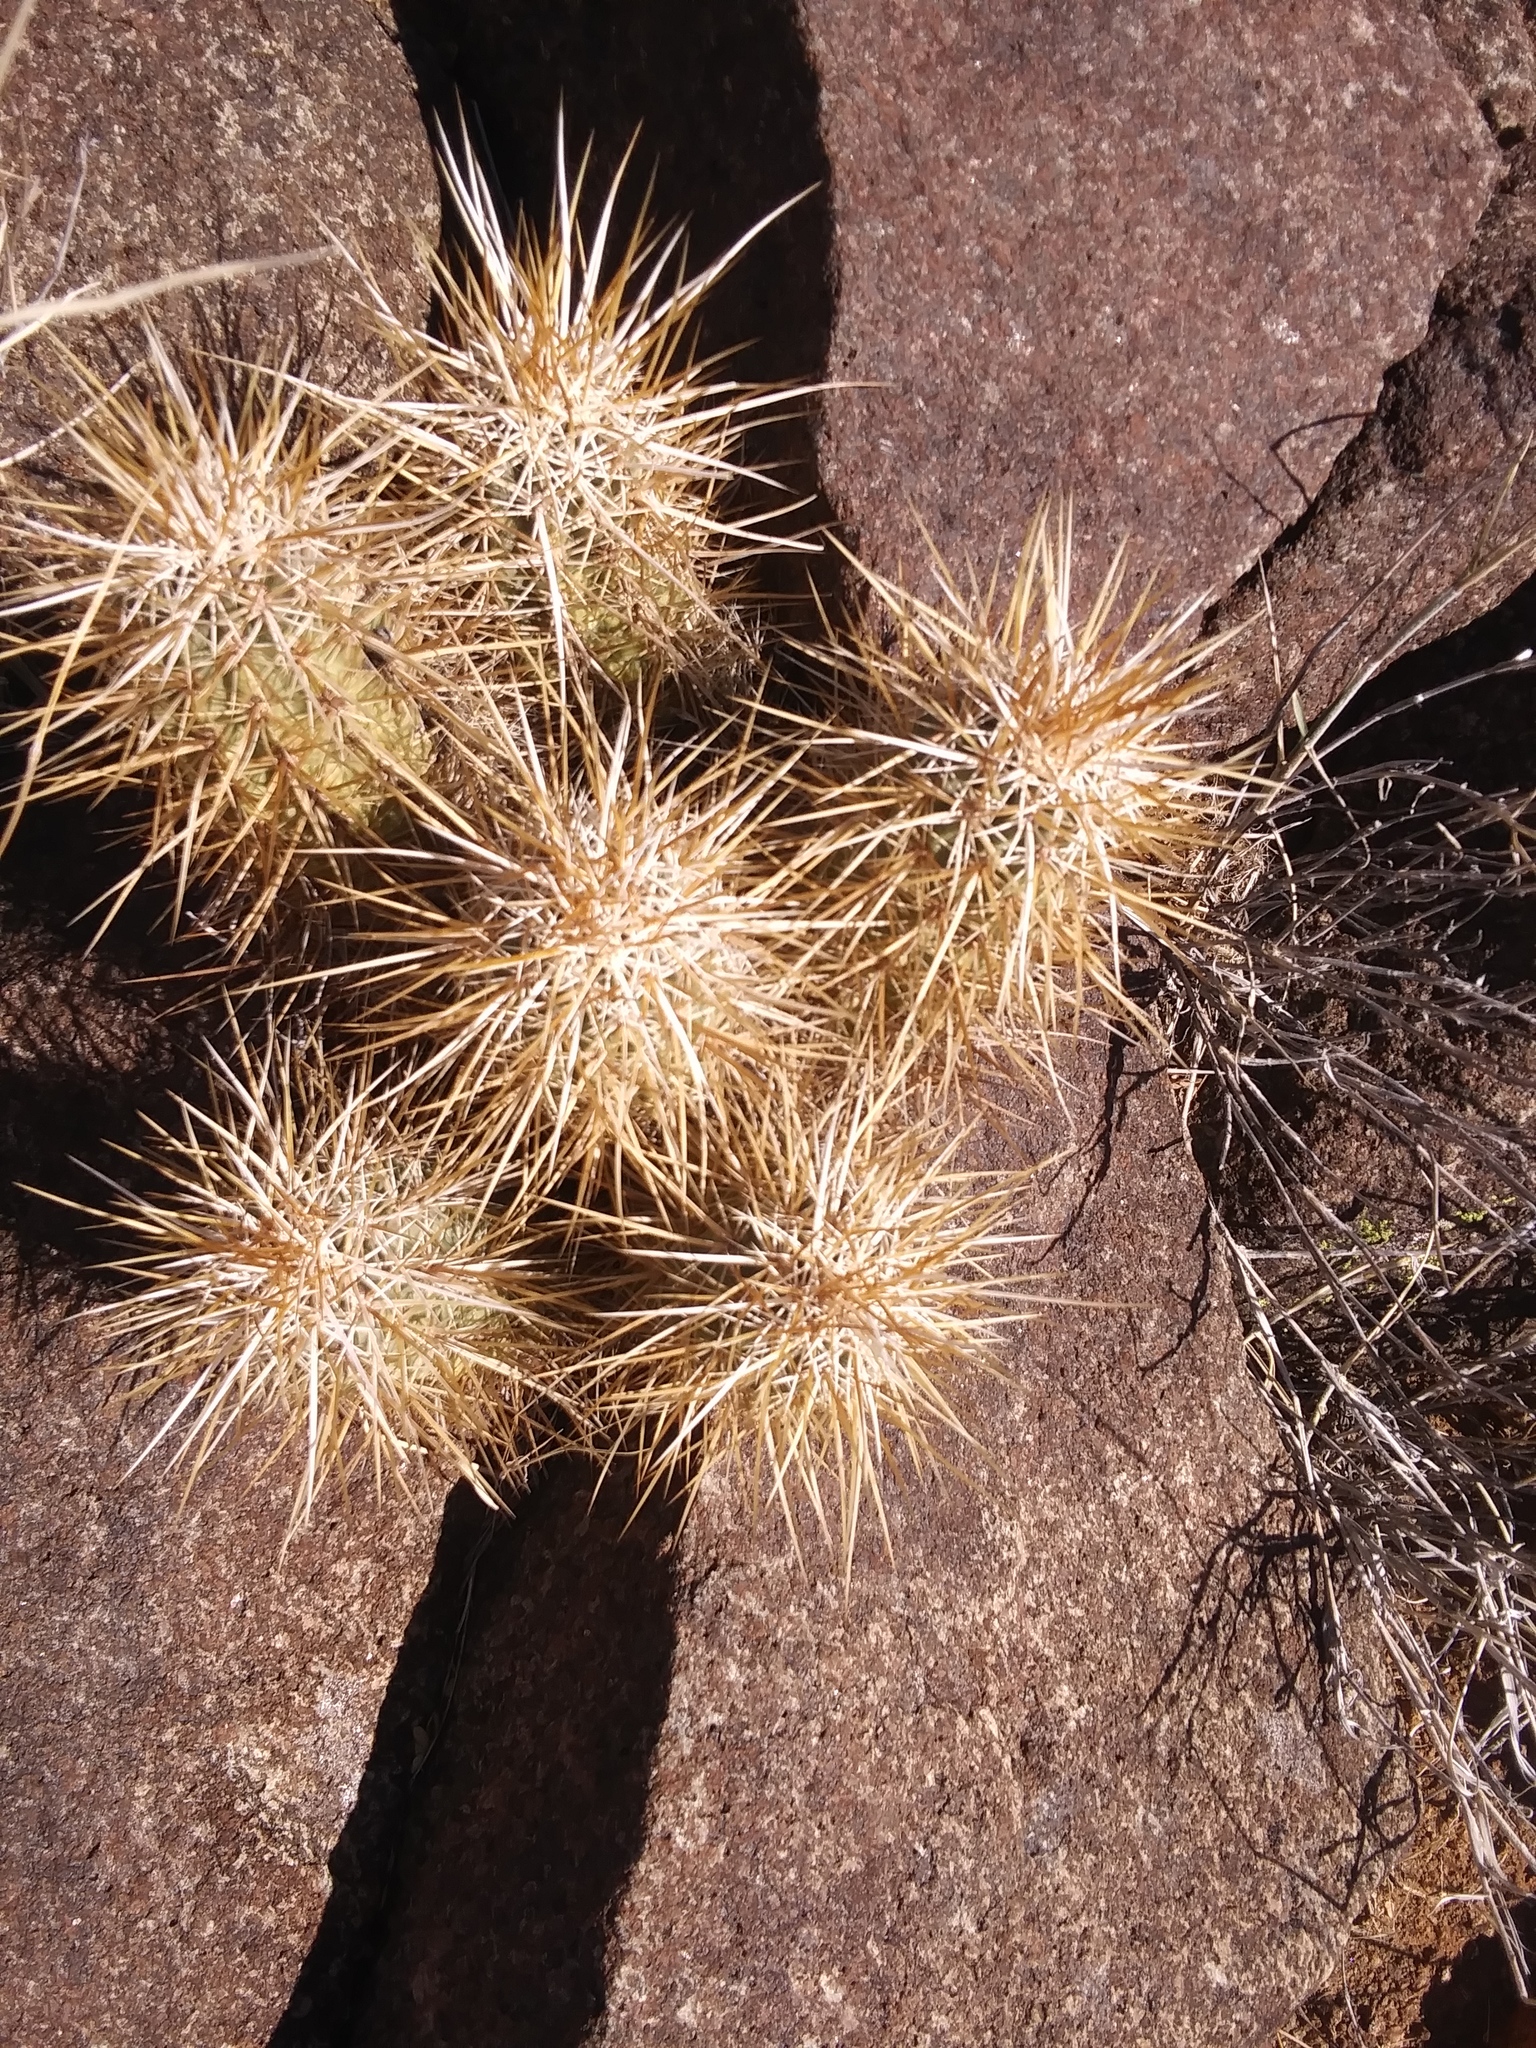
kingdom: Plantae
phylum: Tracheophyta
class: Magnoliopsida
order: Caryophyllales
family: Cactaceae
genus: Echinocereus
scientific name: Echinocereus engelmannii
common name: Engelmann's hedgehog cactus
